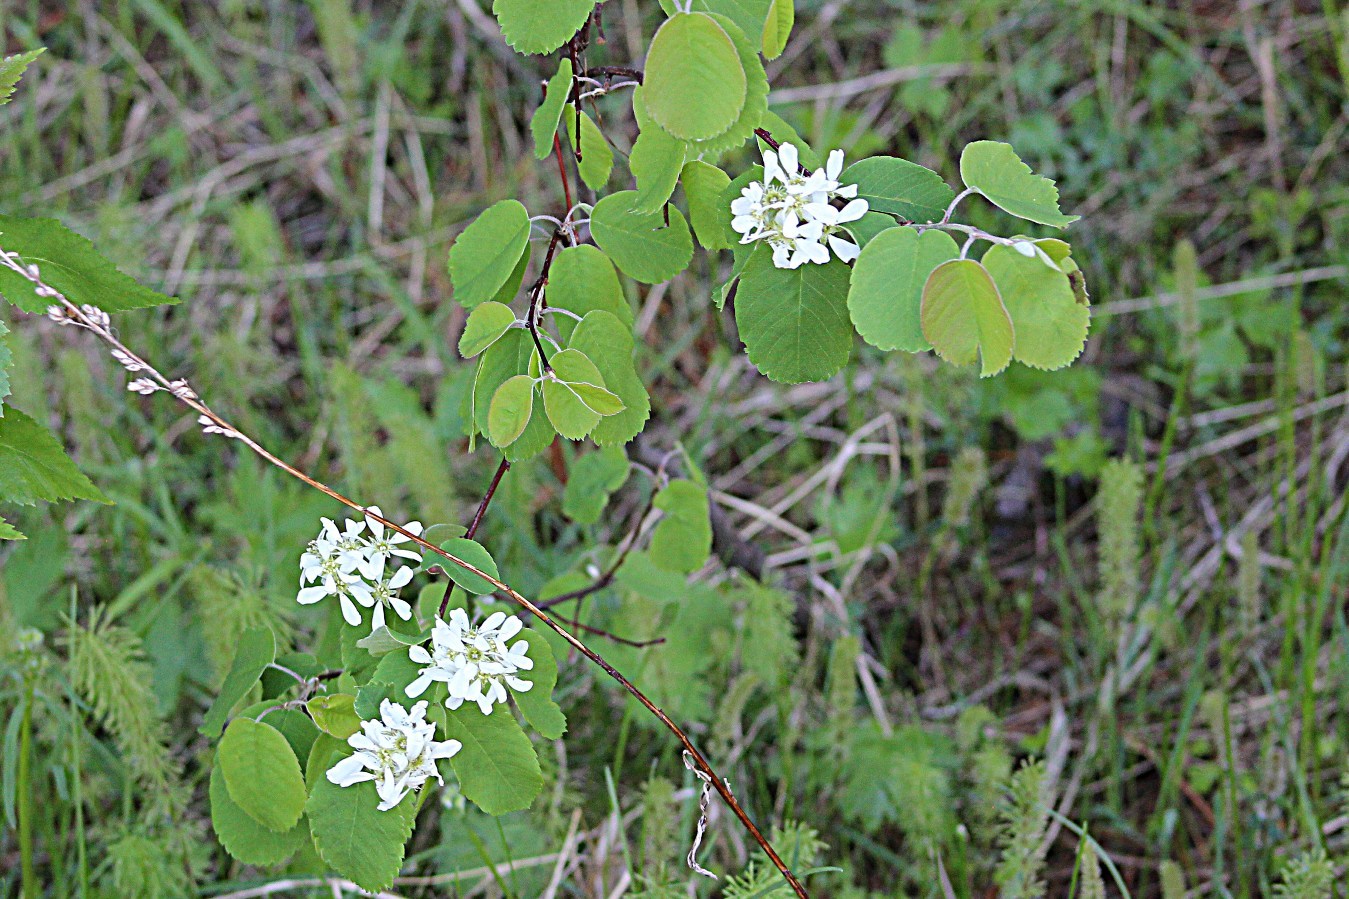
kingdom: Plantae
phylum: Tracheophyta
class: Magnoliopsida
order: Rosales
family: Rosaceae
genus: Amelanchier
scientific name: Amelanchier alnifolia
